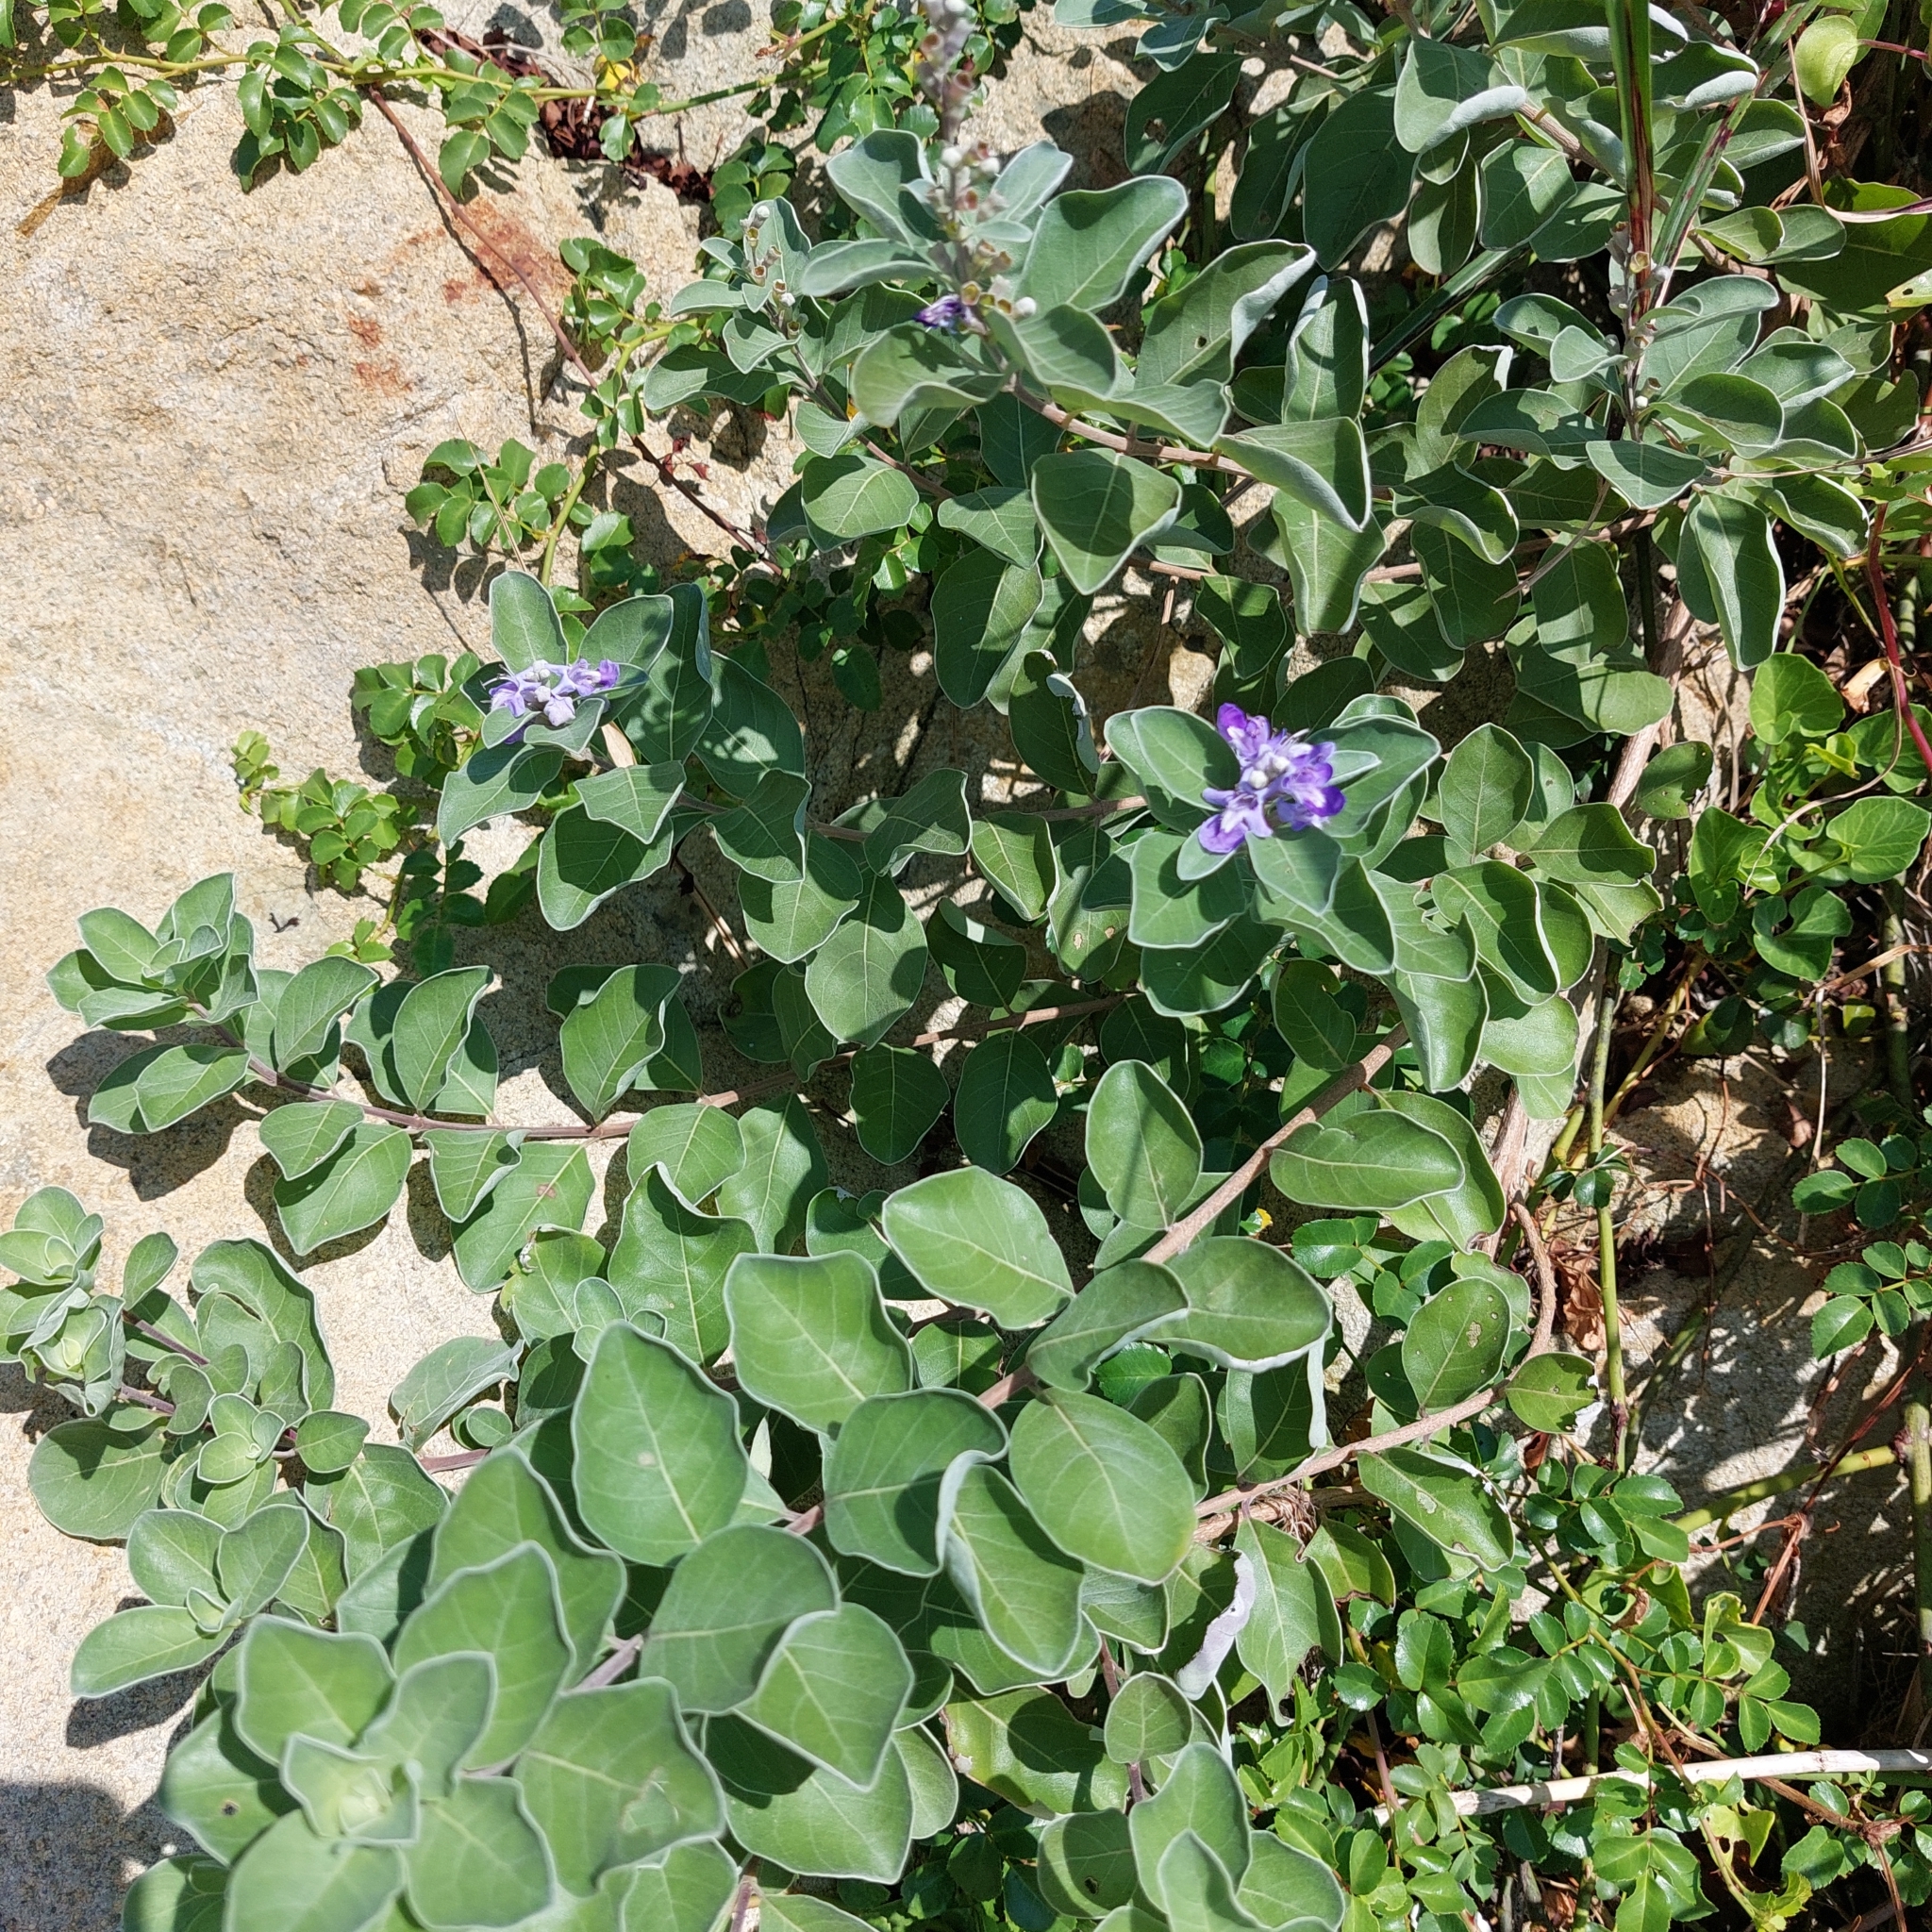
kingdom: Plantae
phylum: Tracheophyta
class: Magnoliopsida
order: Lamiales
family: Lamiaceae
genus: Vitex
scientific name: Vitex rotundifolia
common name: Beach vitex
